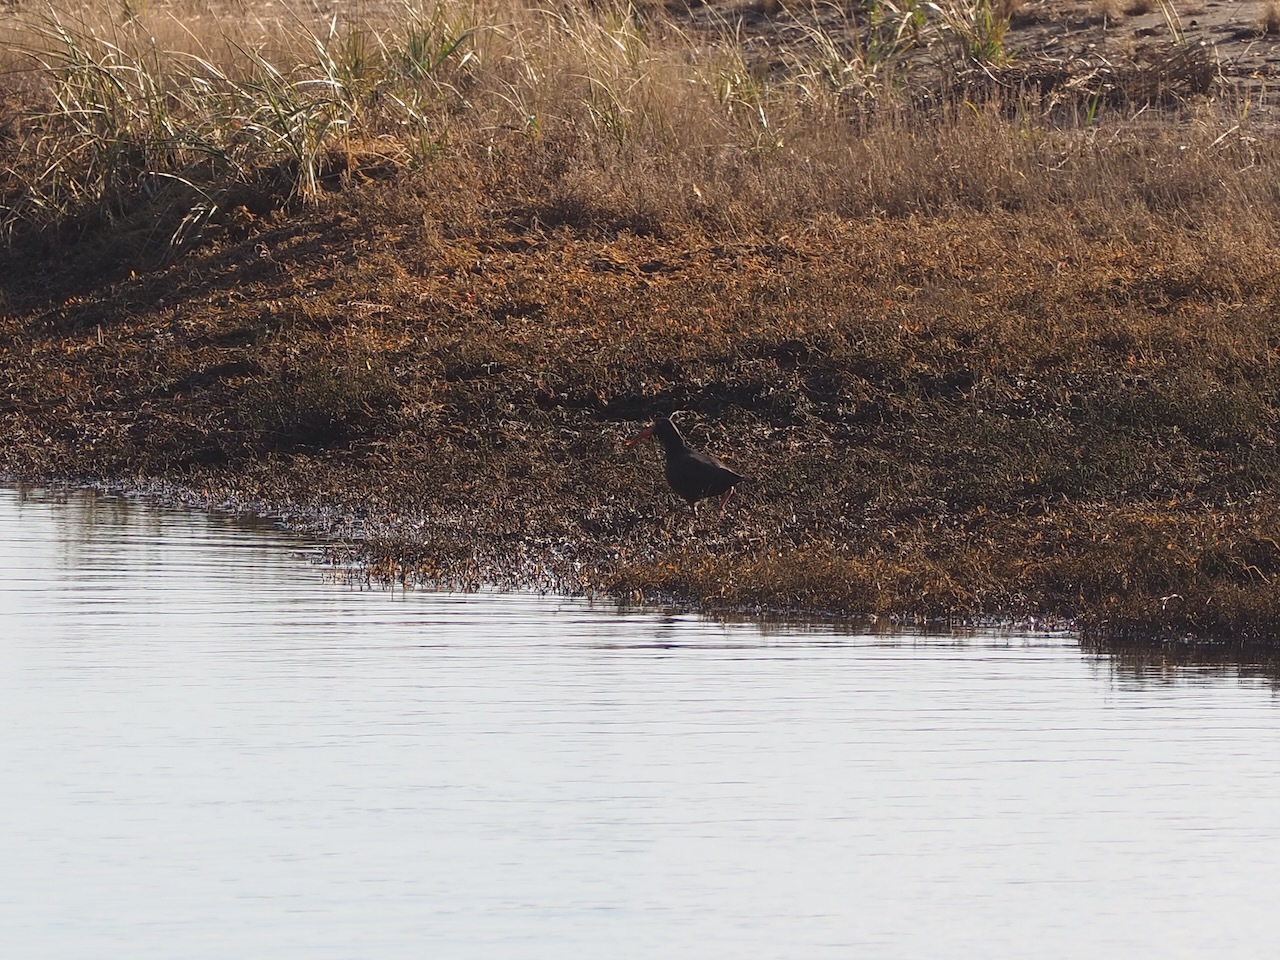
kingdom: Animalia
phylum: Chordata
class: Aves
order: Charadriiformes
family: Haematopodidae
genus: Haematopus
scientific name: Haematopus bachmani
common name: Black oystercatcher
